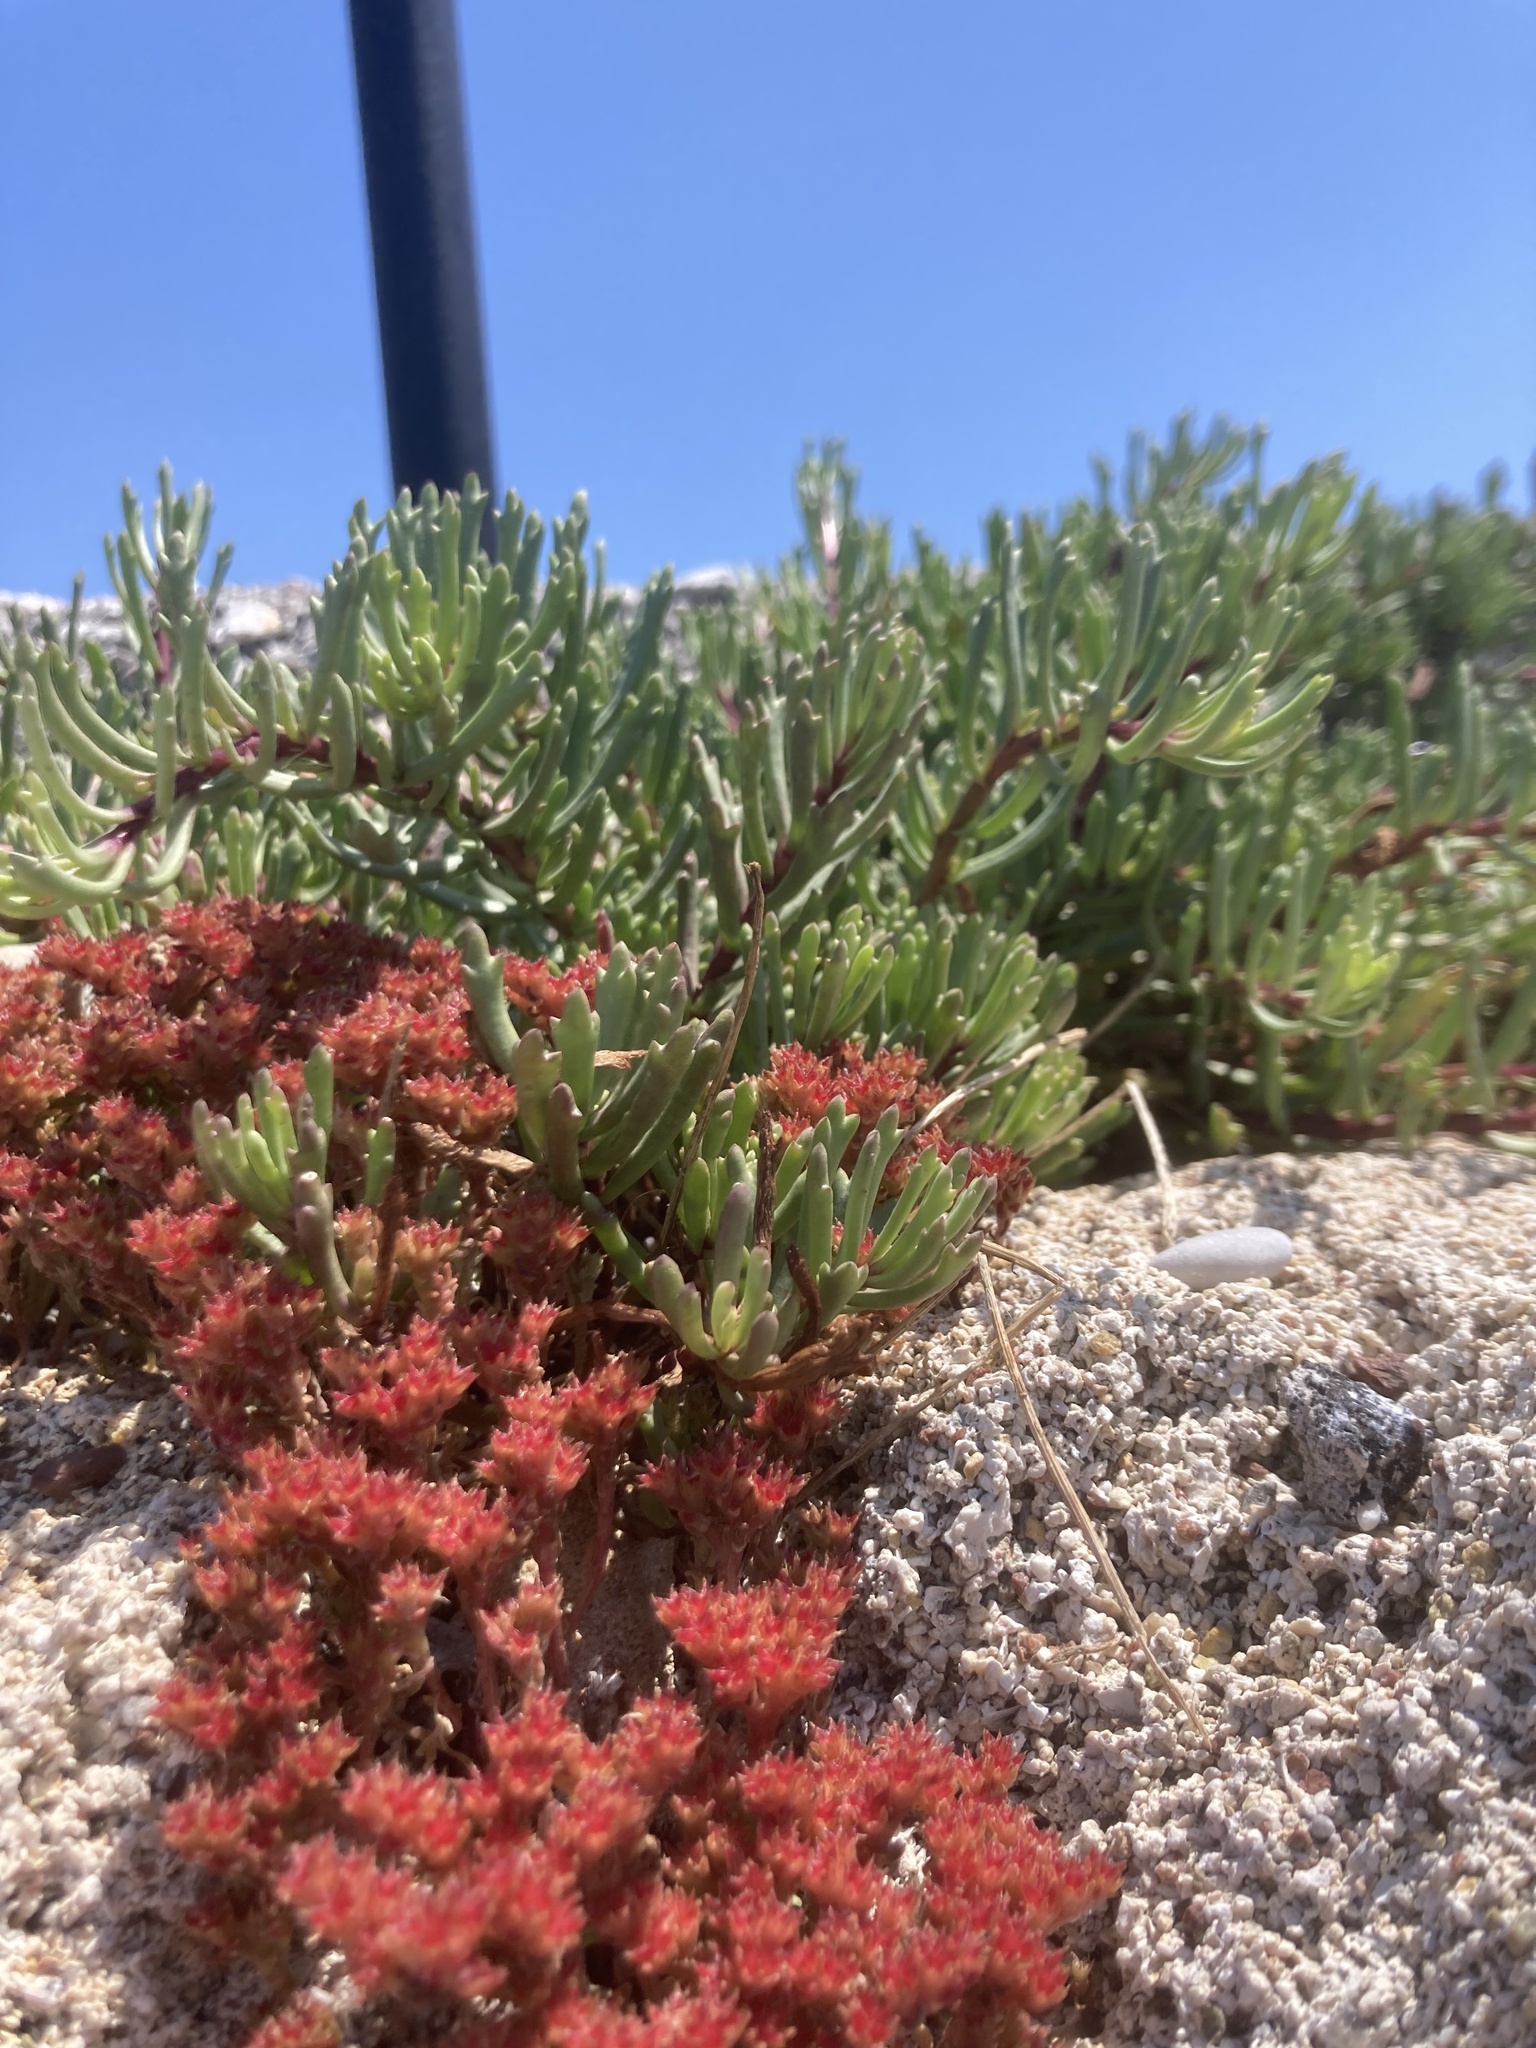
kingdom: Plantae
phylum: Tracheophyta
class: Magnoliopsida
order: Asterales
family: Asteraceae
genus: Limbarda
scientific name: Limbarda crithmoides
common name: Golden samphire
